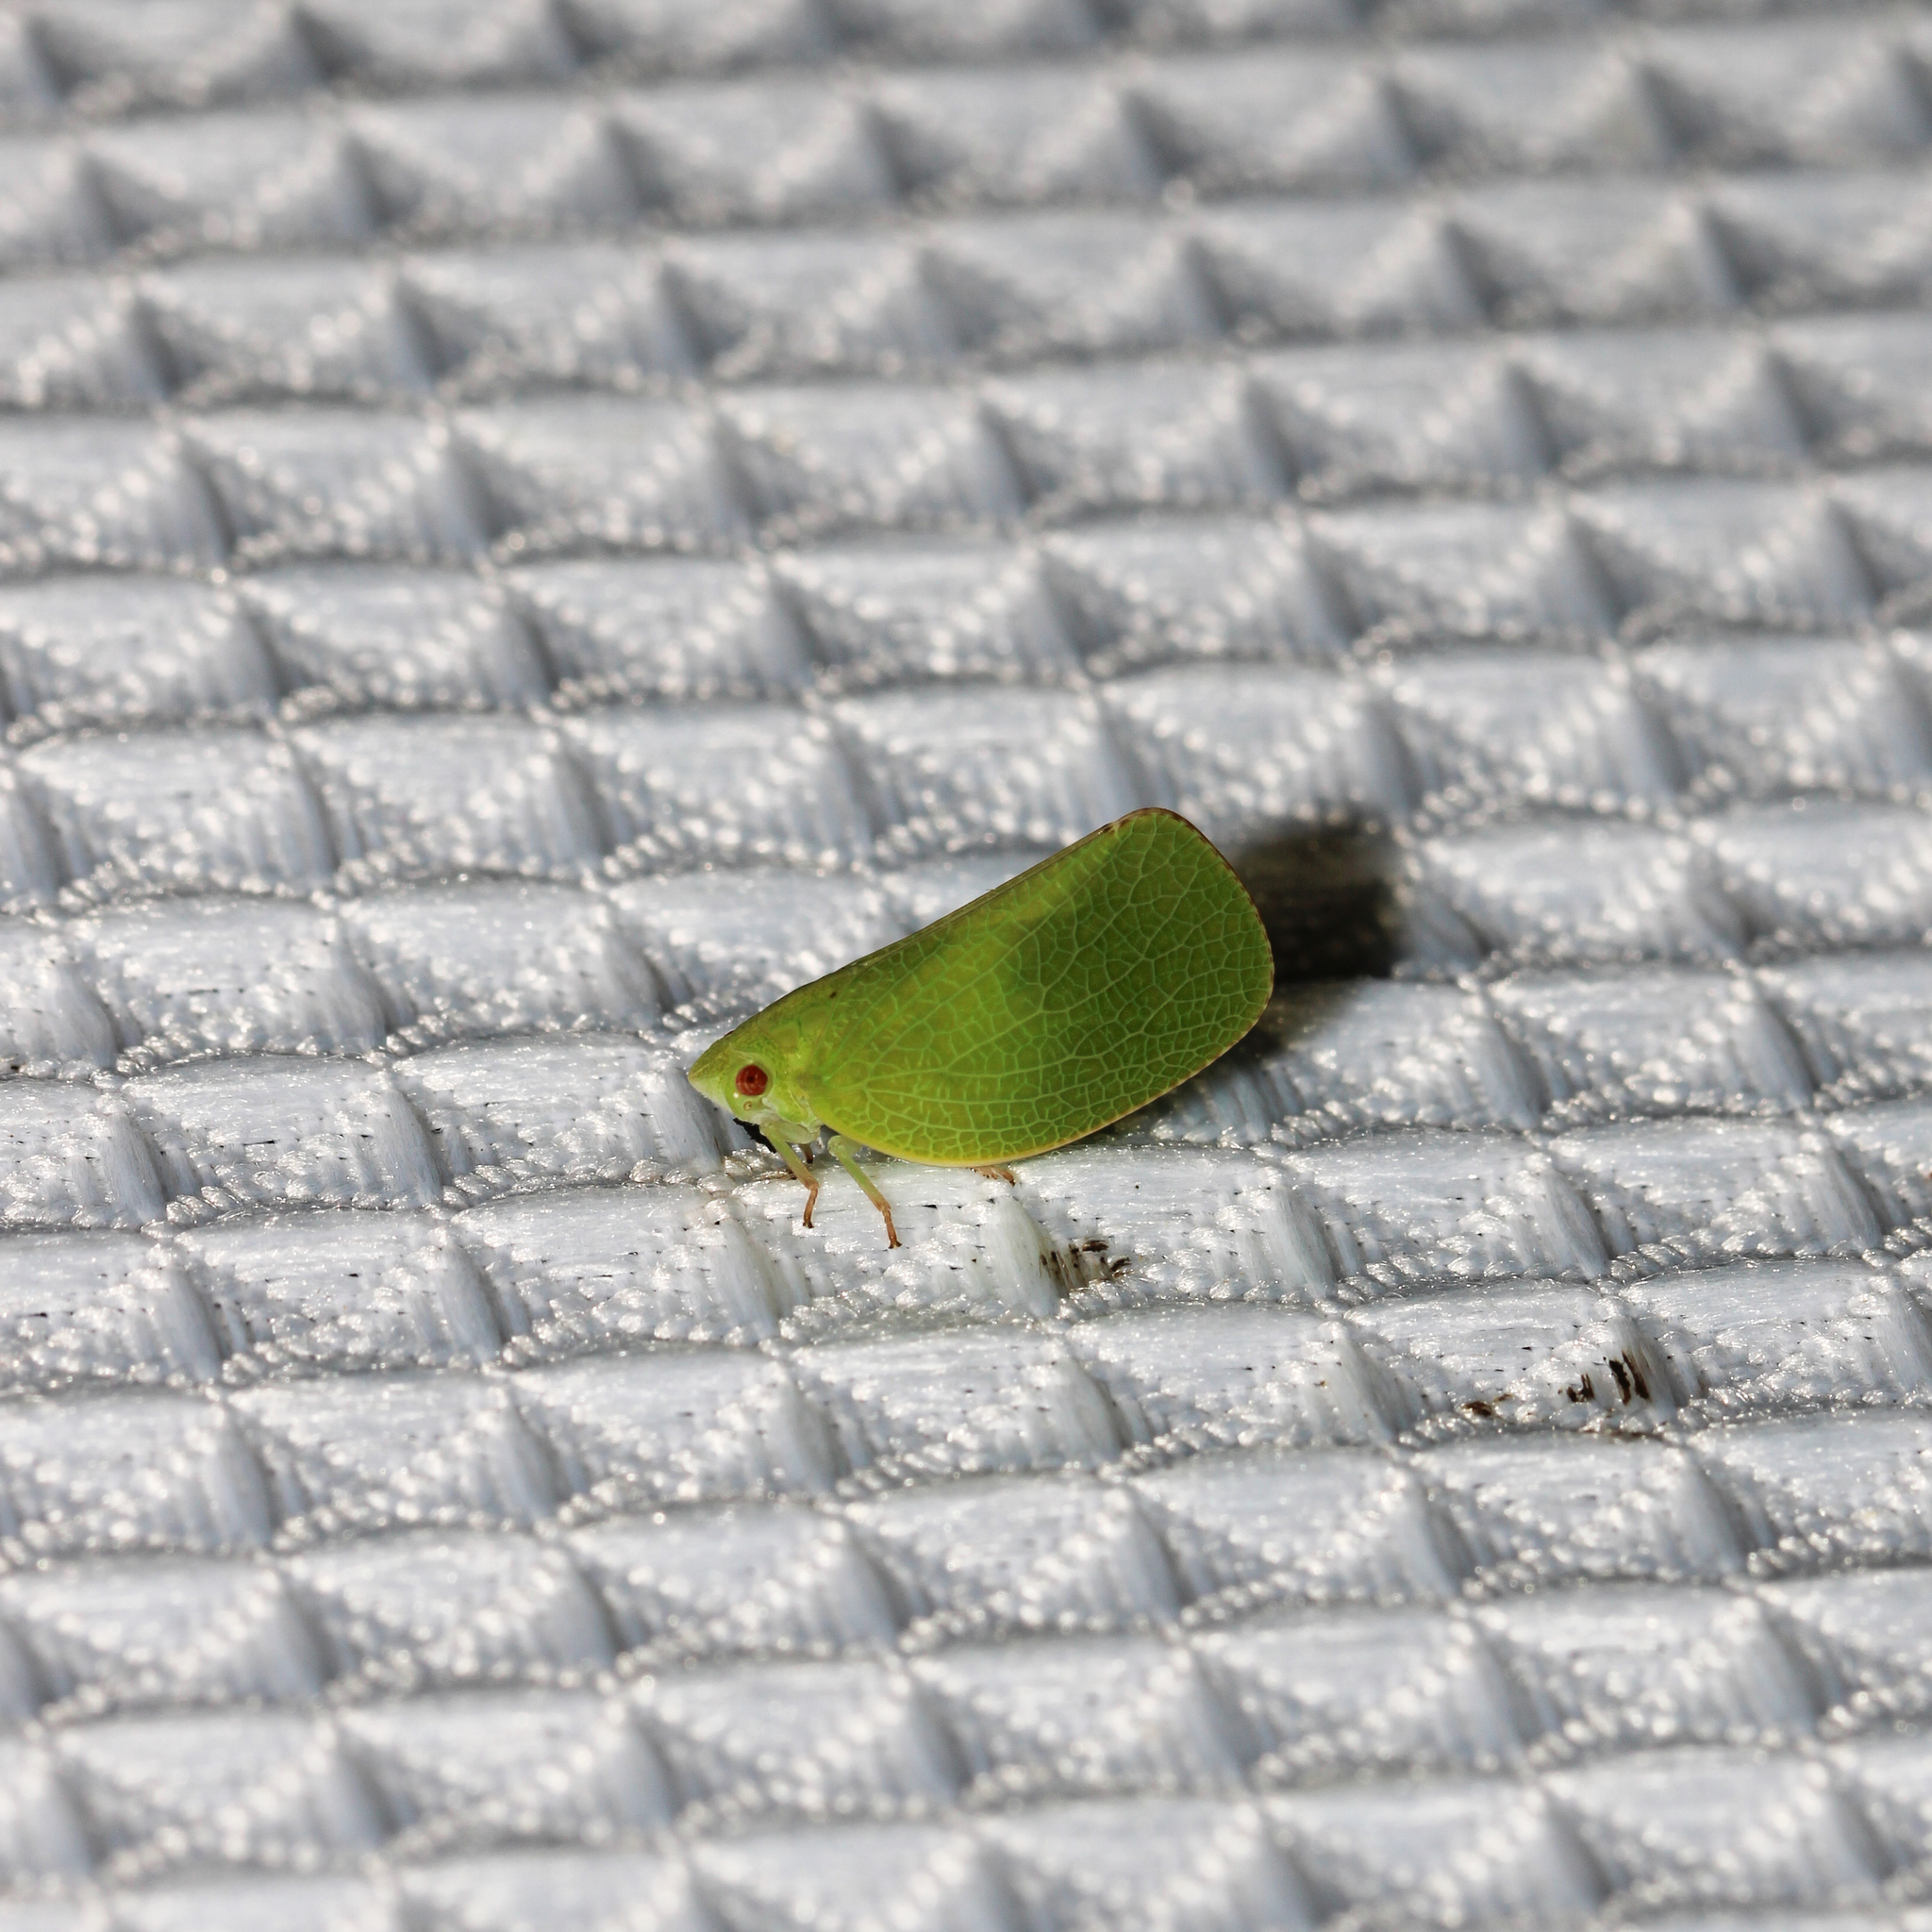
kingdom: Animalia
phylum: Arthropoda
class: Insecta
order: Hemiptera
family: Acanaloniidae
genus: Acanalonia
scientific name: Acanalonia conica
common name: Green cone-headed planthopper
